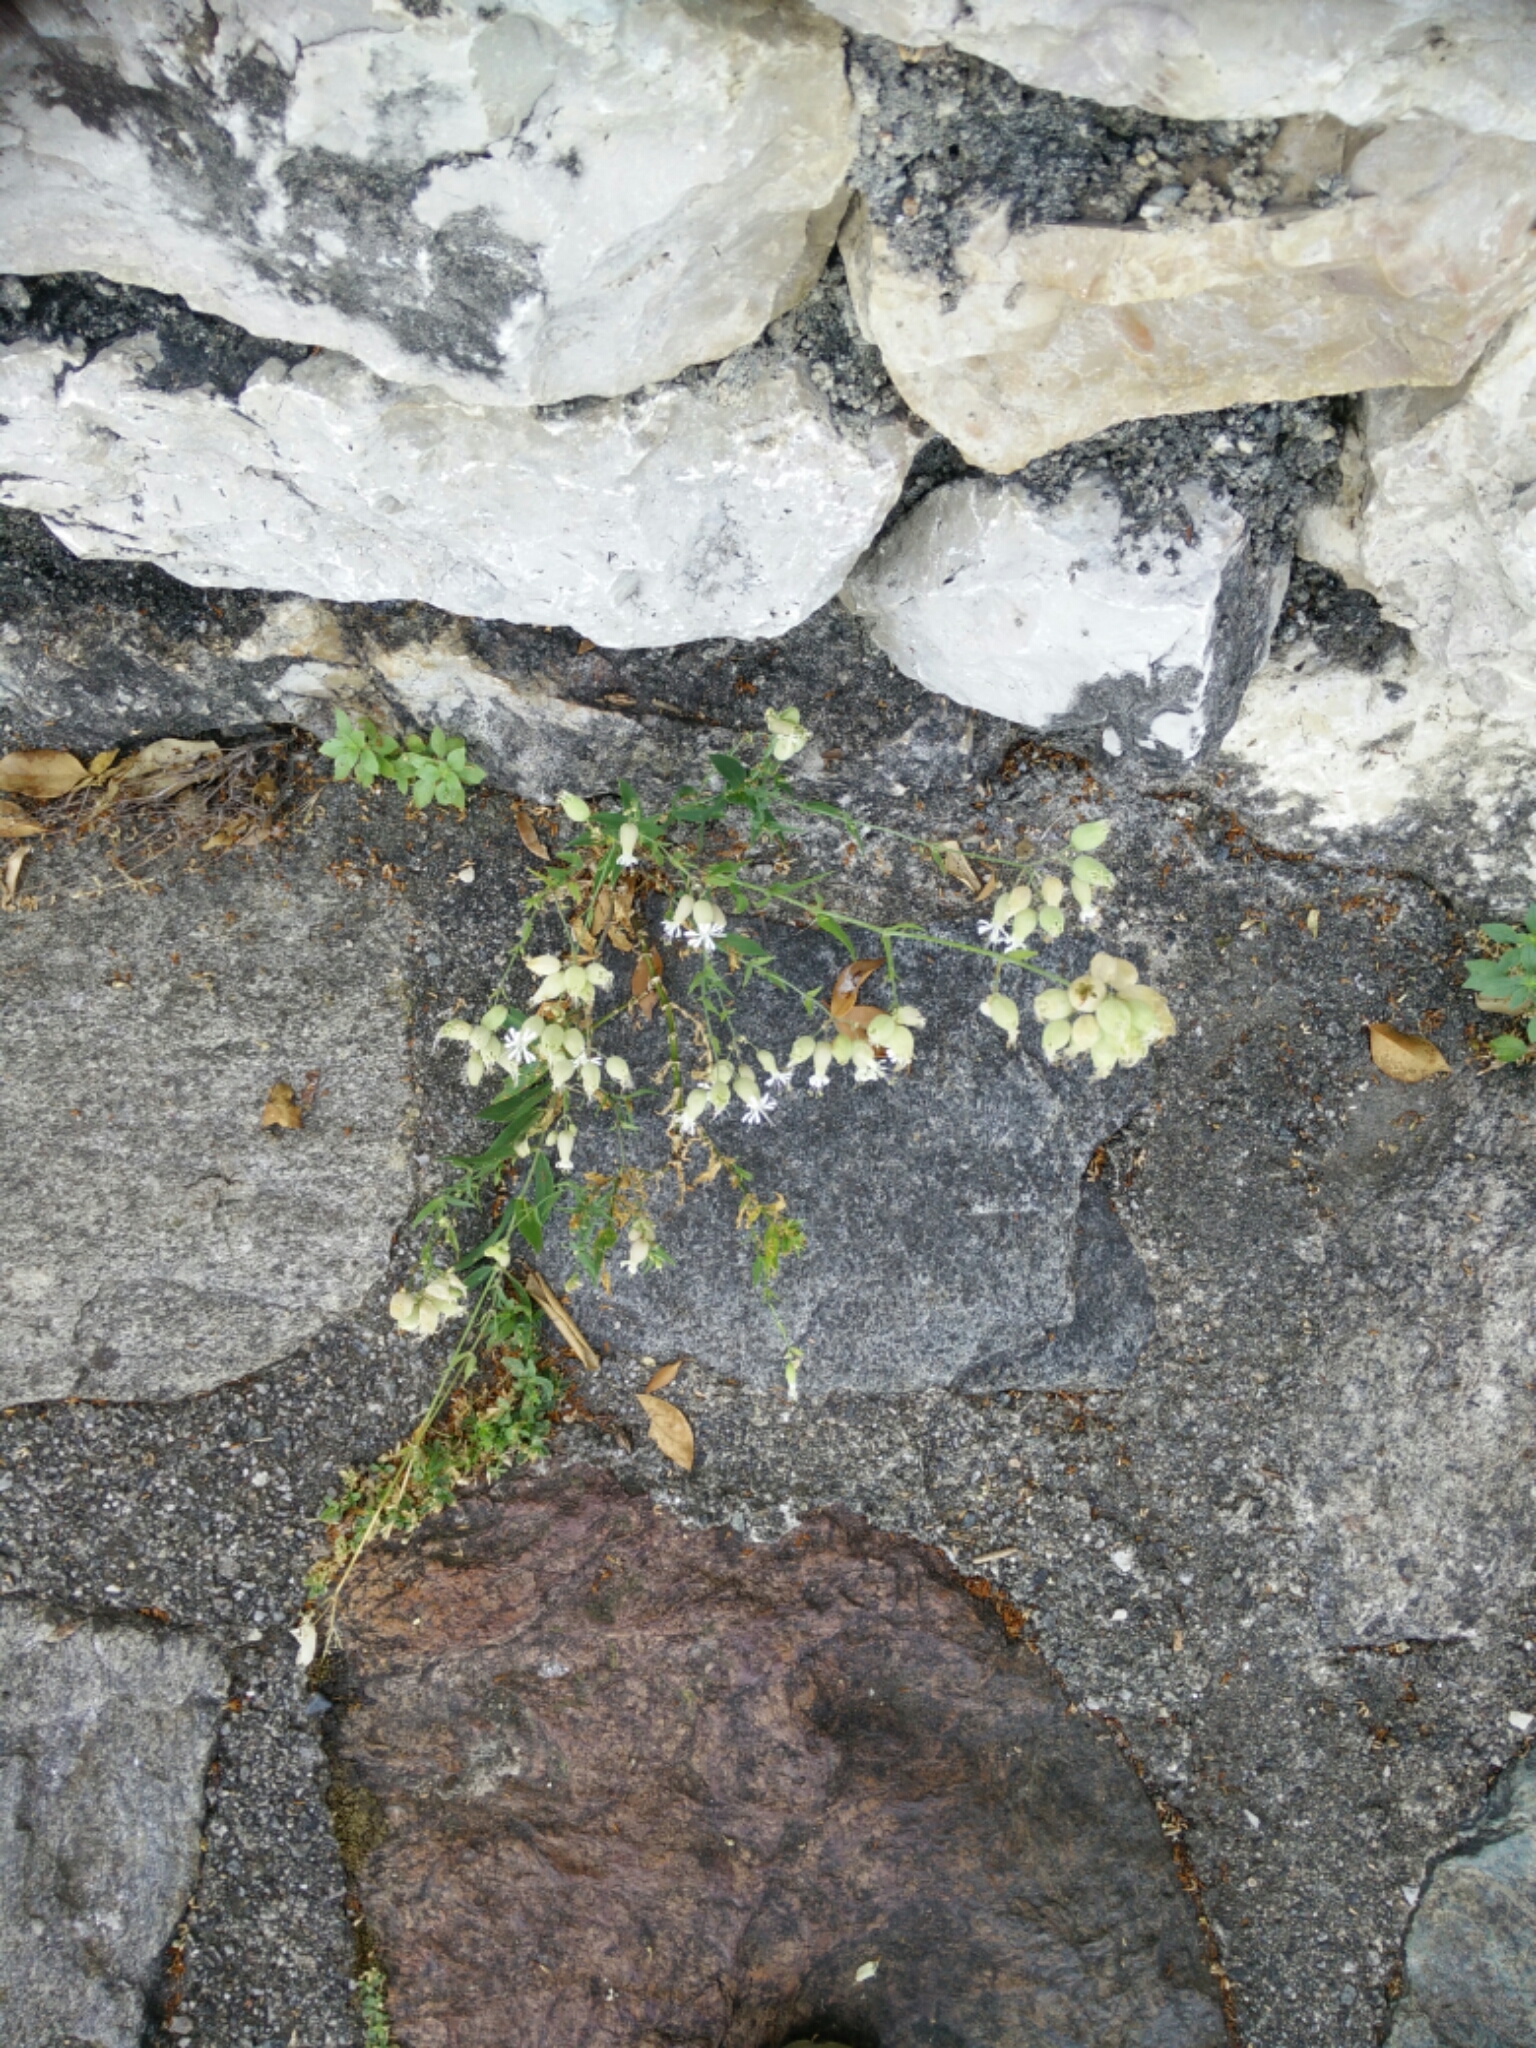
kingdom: Plantae
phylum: Tracheophyta
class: Magnoliopsida
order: Caryophyllales
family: Caryophyllaceae
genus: Silene
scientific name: Silene vulgaris
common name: Bladder campion
